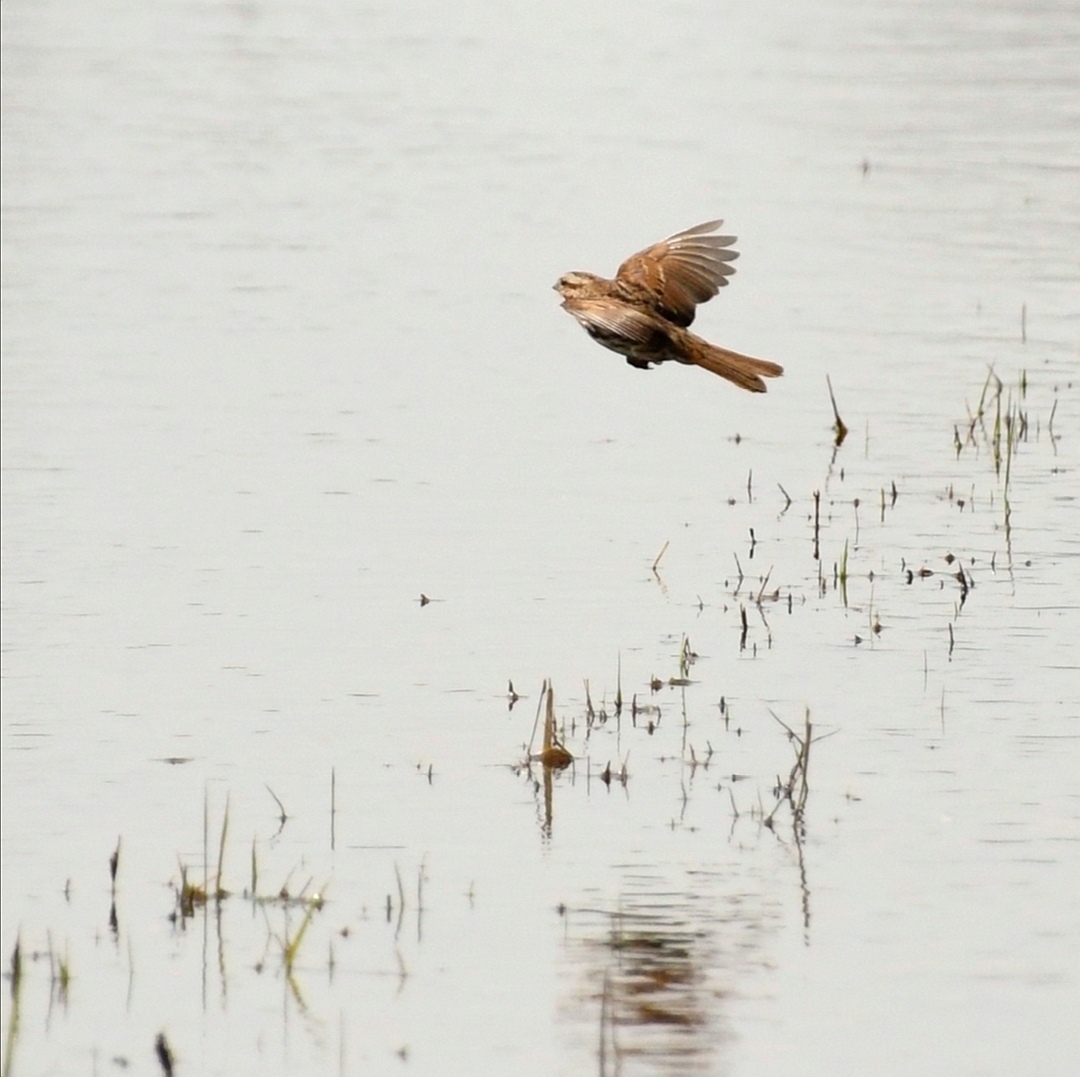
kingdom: Animalia
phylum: Chordata
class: Aves
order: Passeriformes
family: Passerellidae
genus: Melospiza
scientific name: Melospiza melodia
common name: Song sparrow
